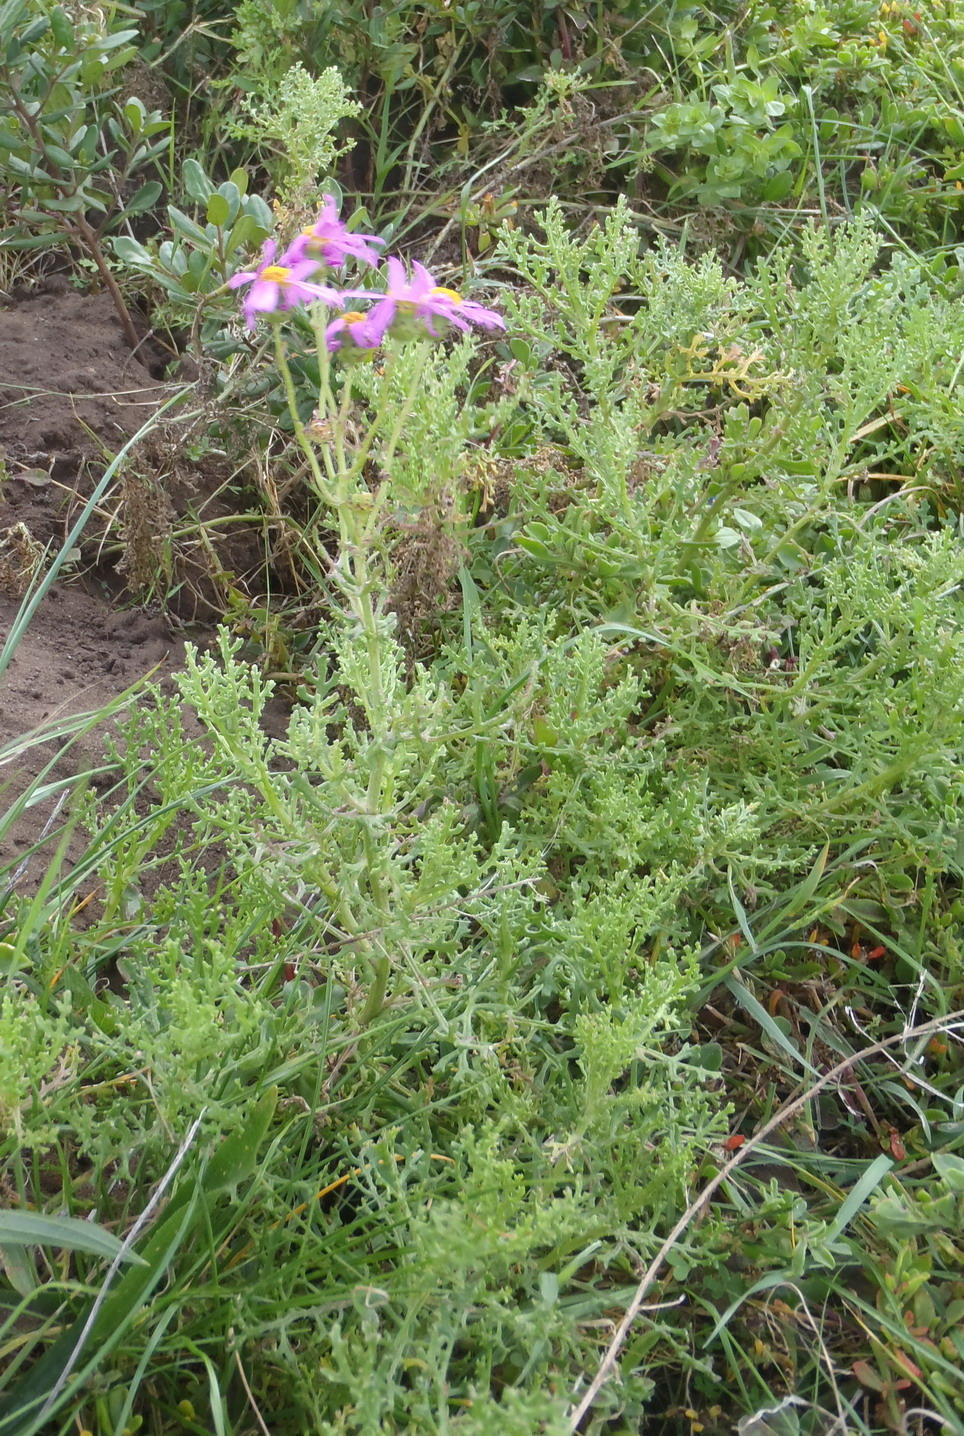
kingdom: Plantae
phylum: Tracheophyta
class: Magnoliopsida
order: Asterales
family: Asteraceae
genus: Senecio
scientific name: Senecio elegans
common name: Purple groundsel
